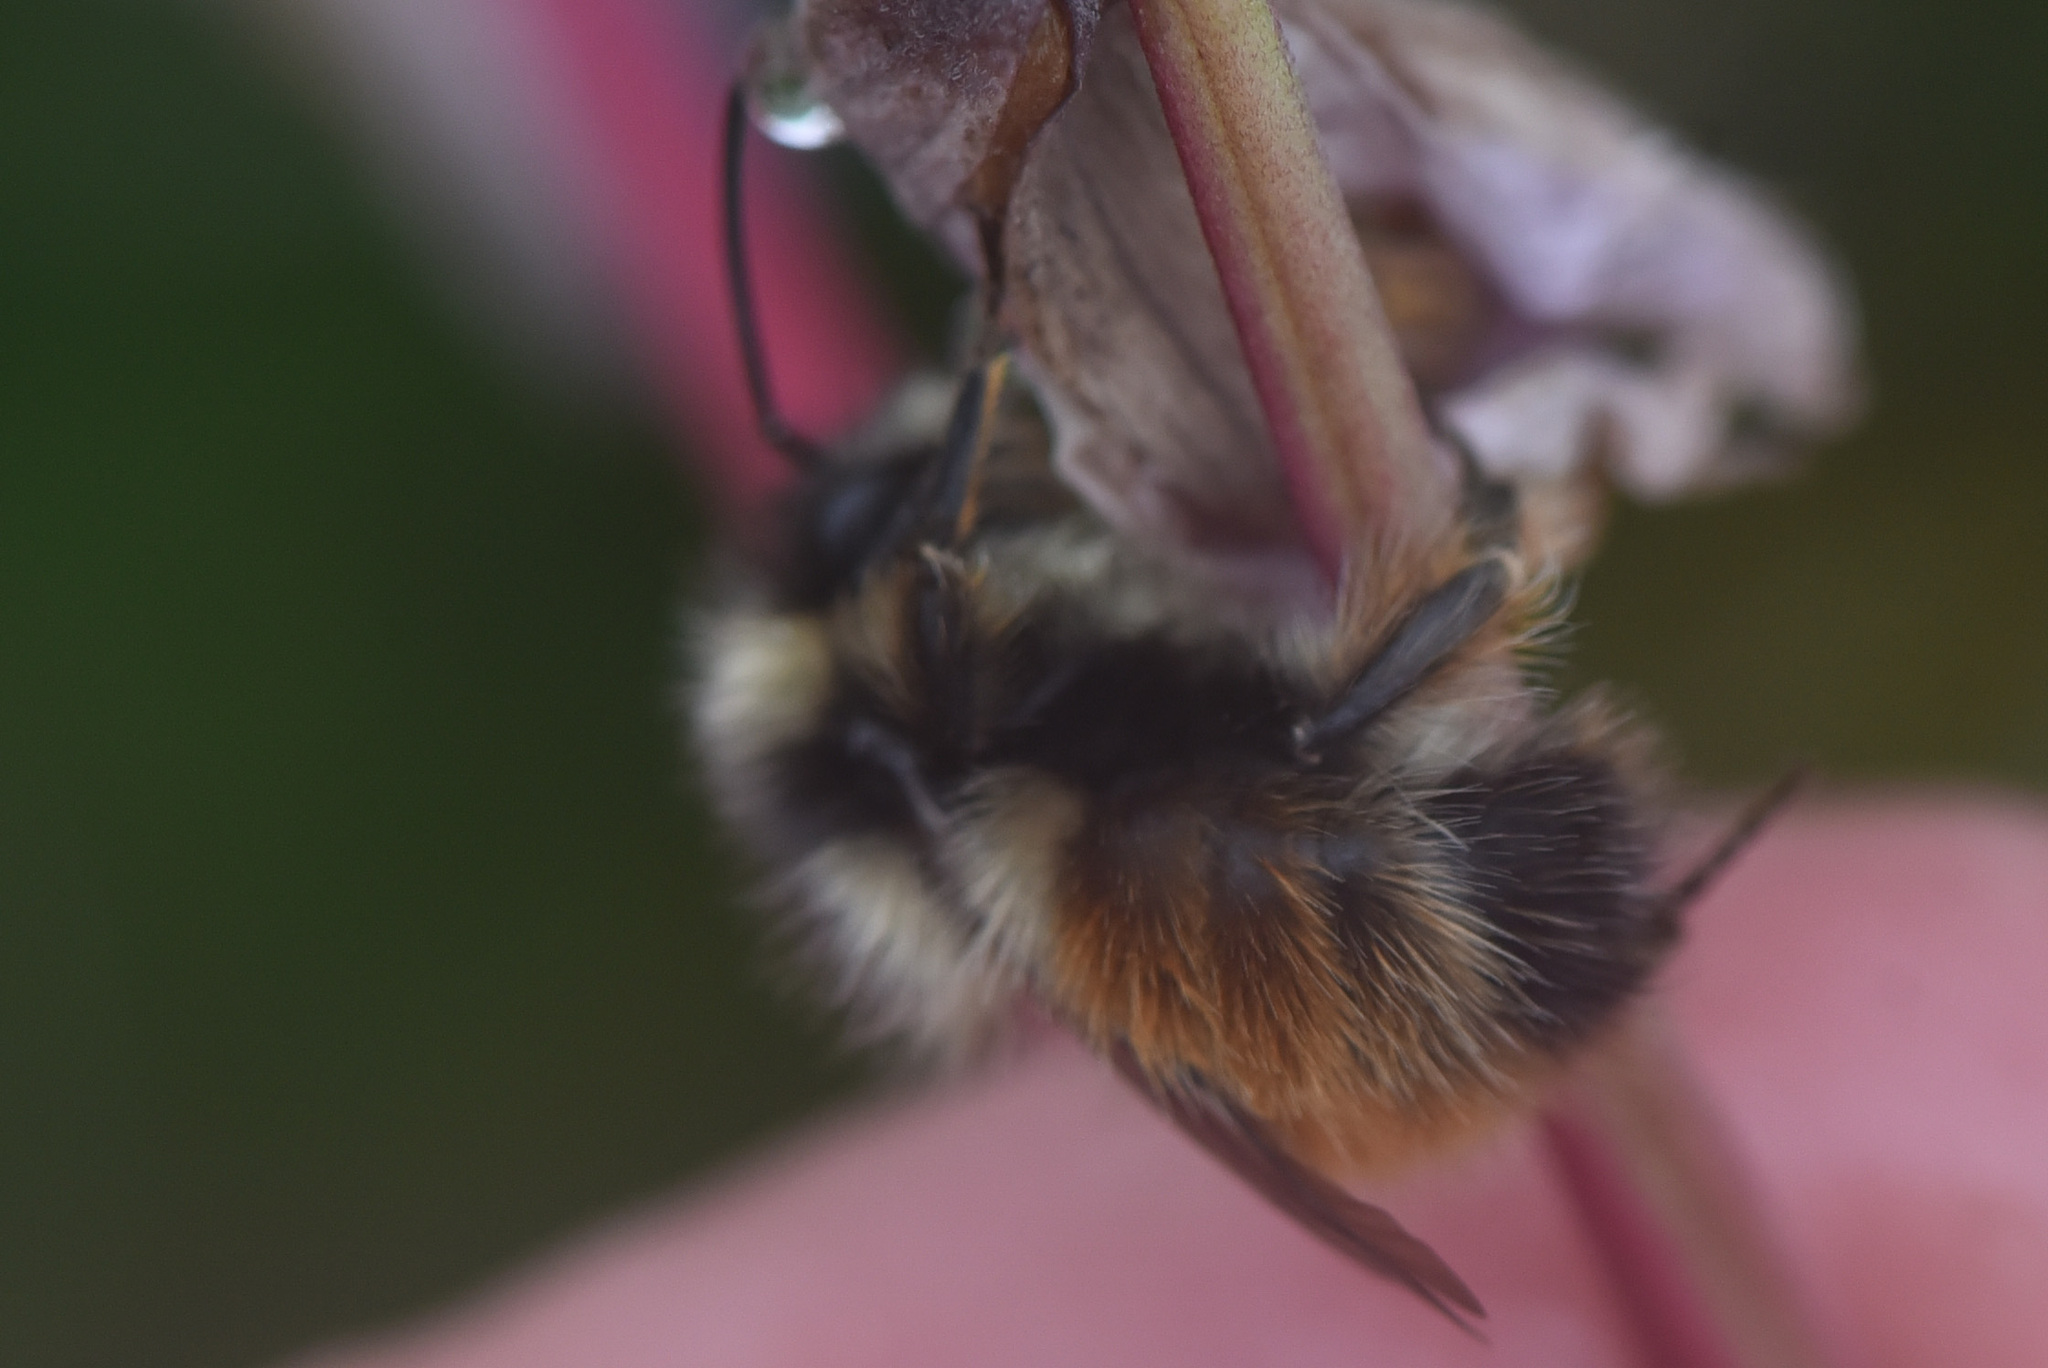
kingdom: Animalia
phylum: Arthropoda
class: Insecta
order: Hymenoptera
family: Apidae
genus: Bombus
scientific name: Bombus sylvicola
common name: Forest bumble bee
